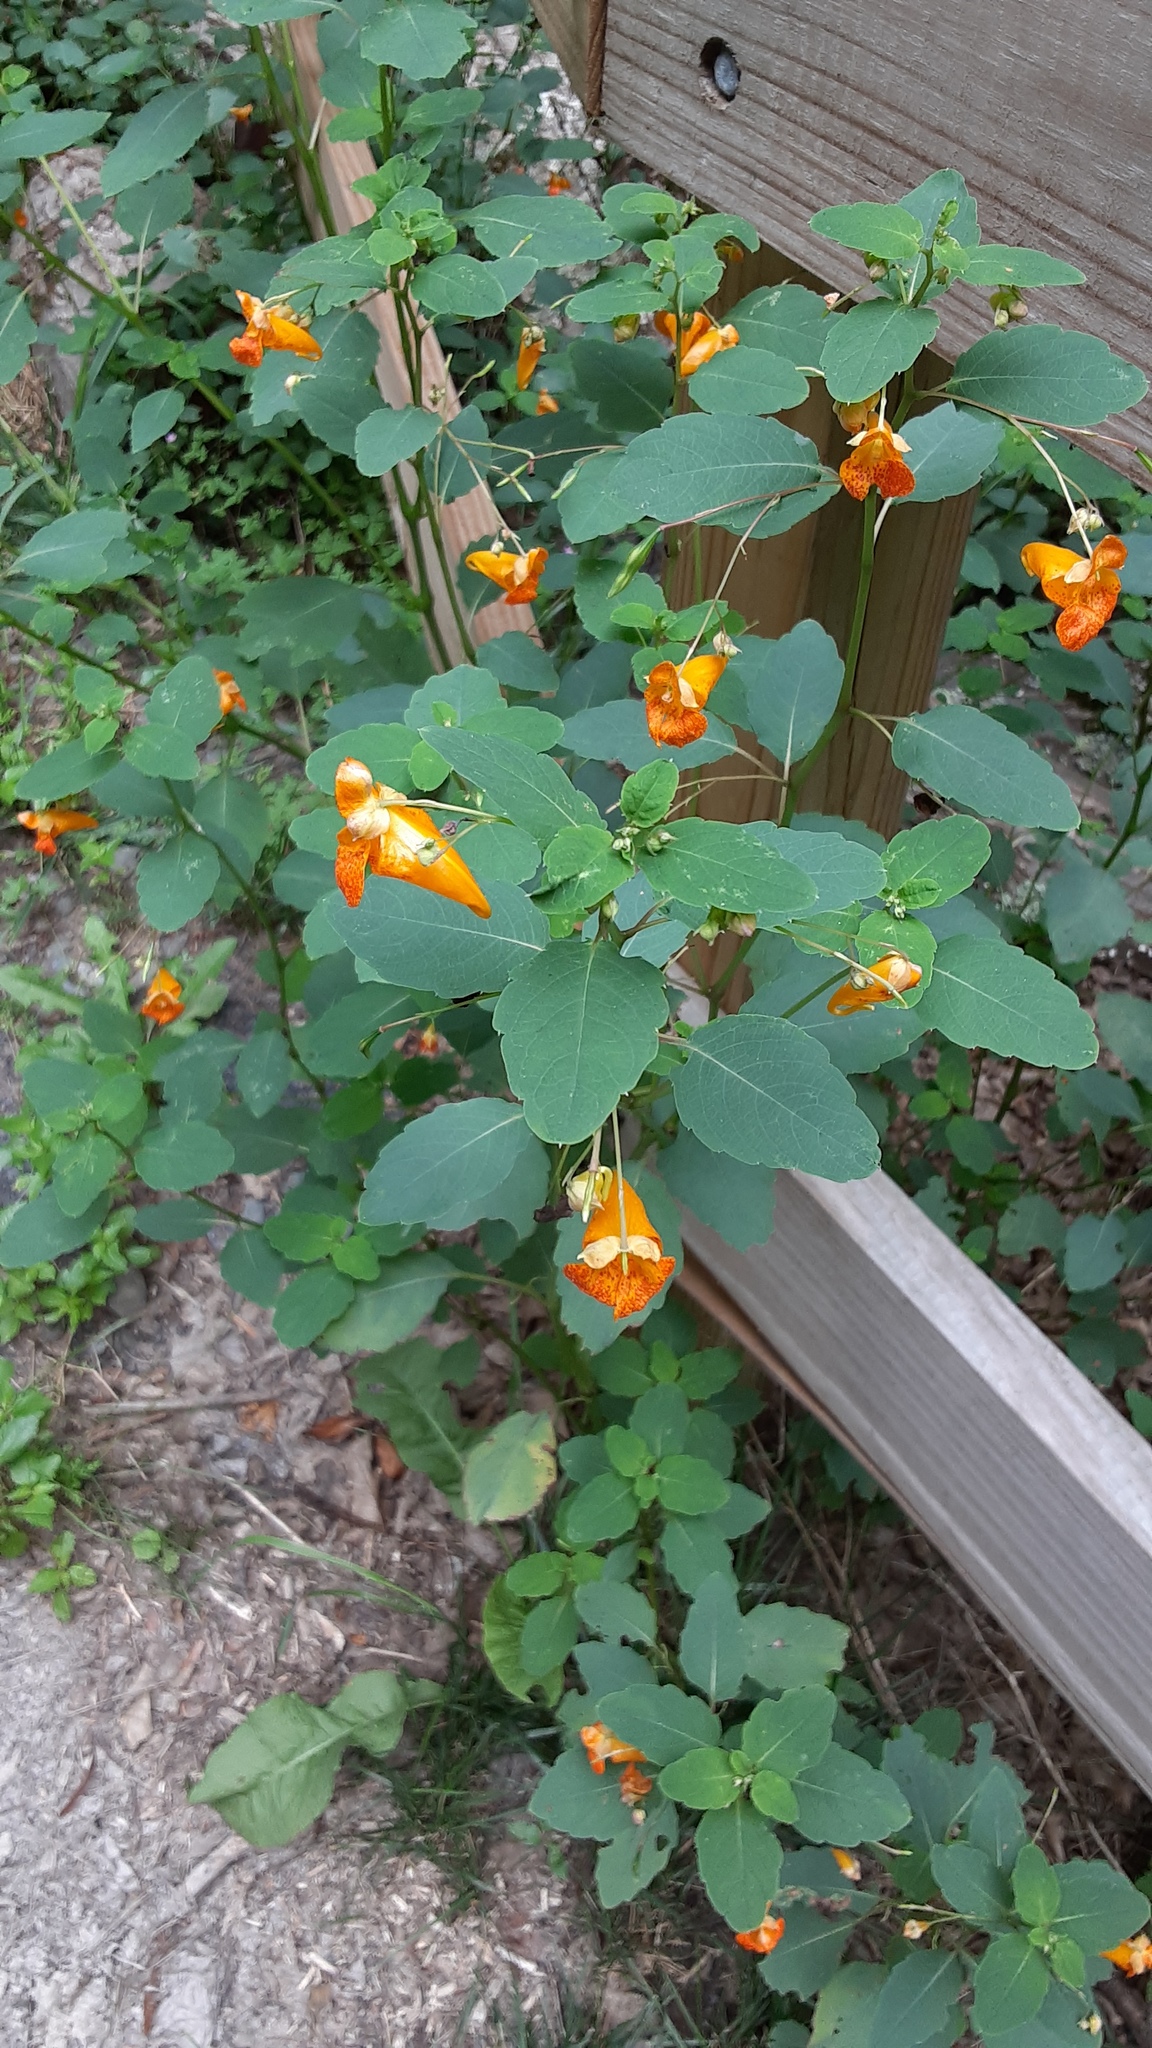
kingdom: Plantae
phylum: Tracheophyta
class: Magnoliopsida
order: Ericales
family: Balsaminaceae
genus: Impatiens
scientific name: Impatiens capensis
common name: Orange balsam
